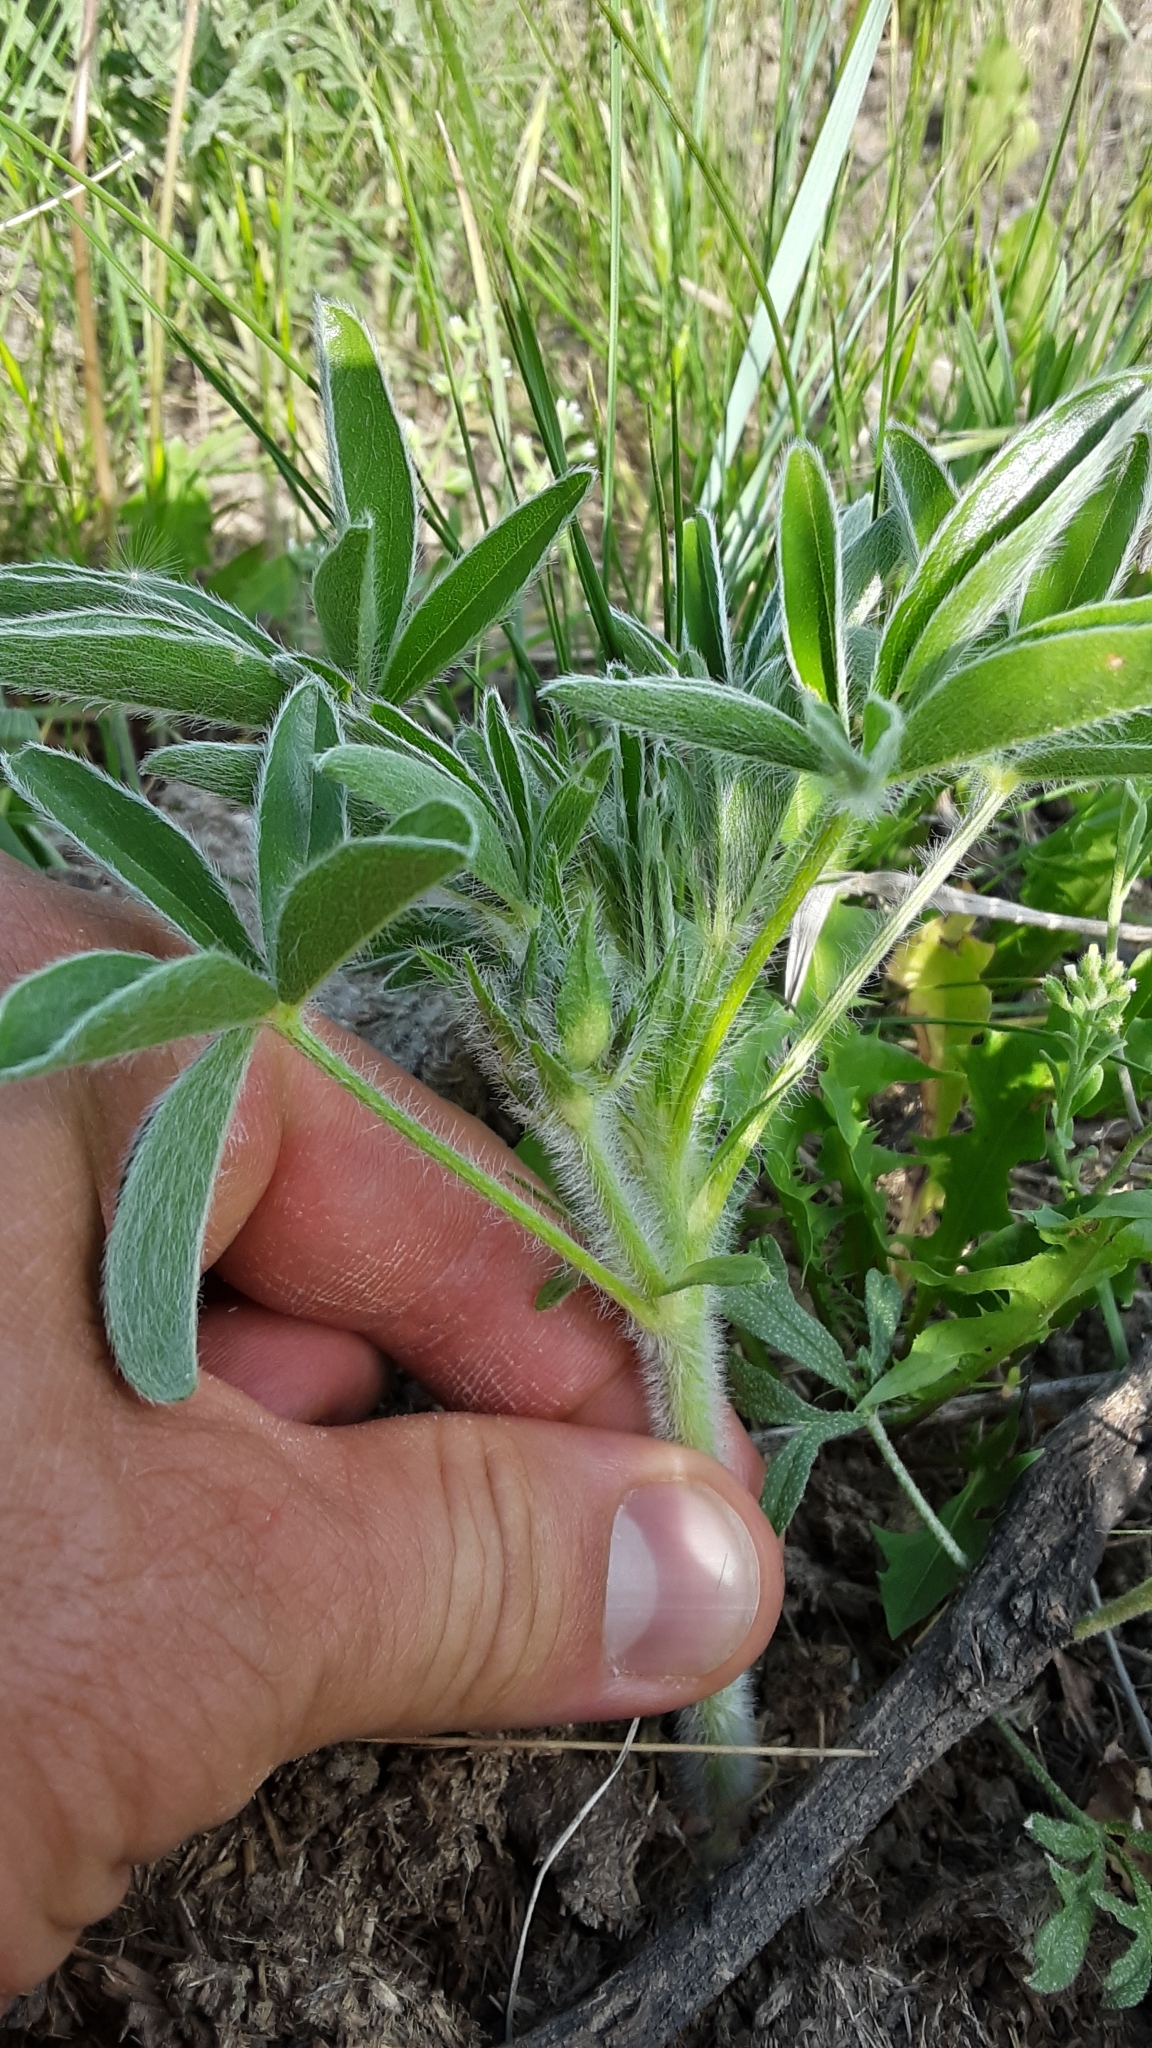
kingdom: Plantae
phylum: Tracheophyta
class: Magnoliopsida
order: Fabales
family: Fabaceae
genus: Pediomelum
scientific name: Pediomelum esculentum
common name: Indian-turnip
